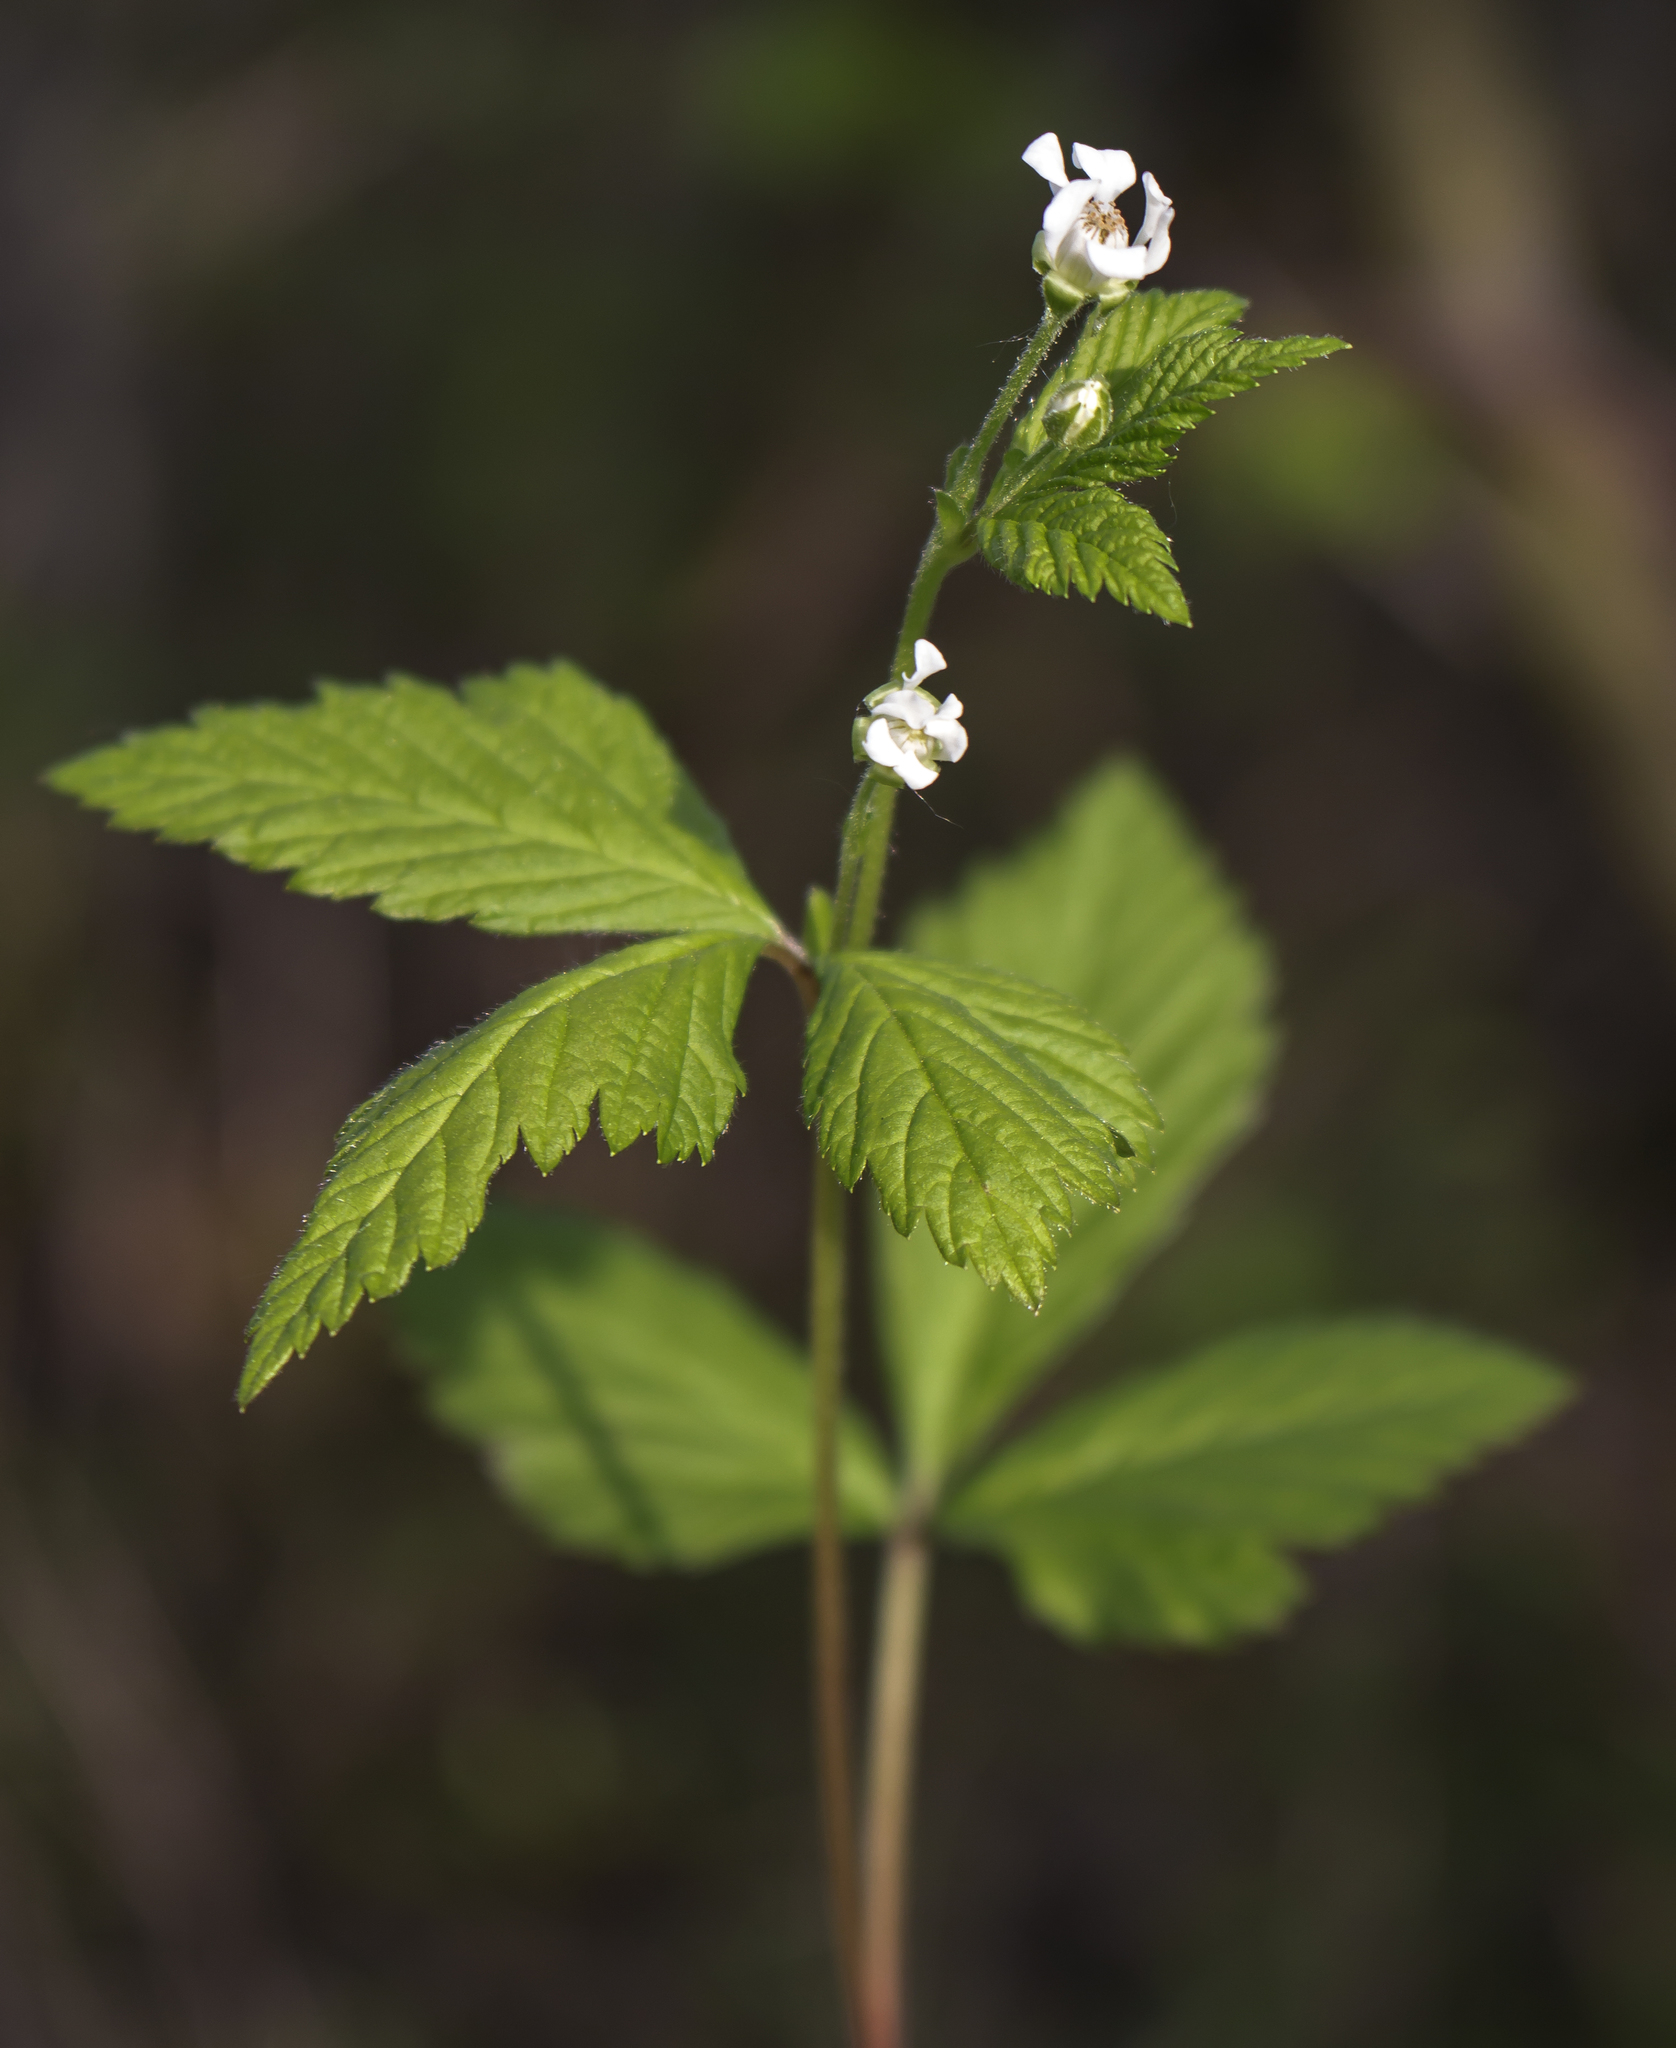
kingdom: Plantae
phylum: Tracheophyta
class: Magnoliopsida
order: Rosales
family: Rosaceae
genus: Rubus
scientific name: Rubus pubescens
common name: Dwarf raspberry
